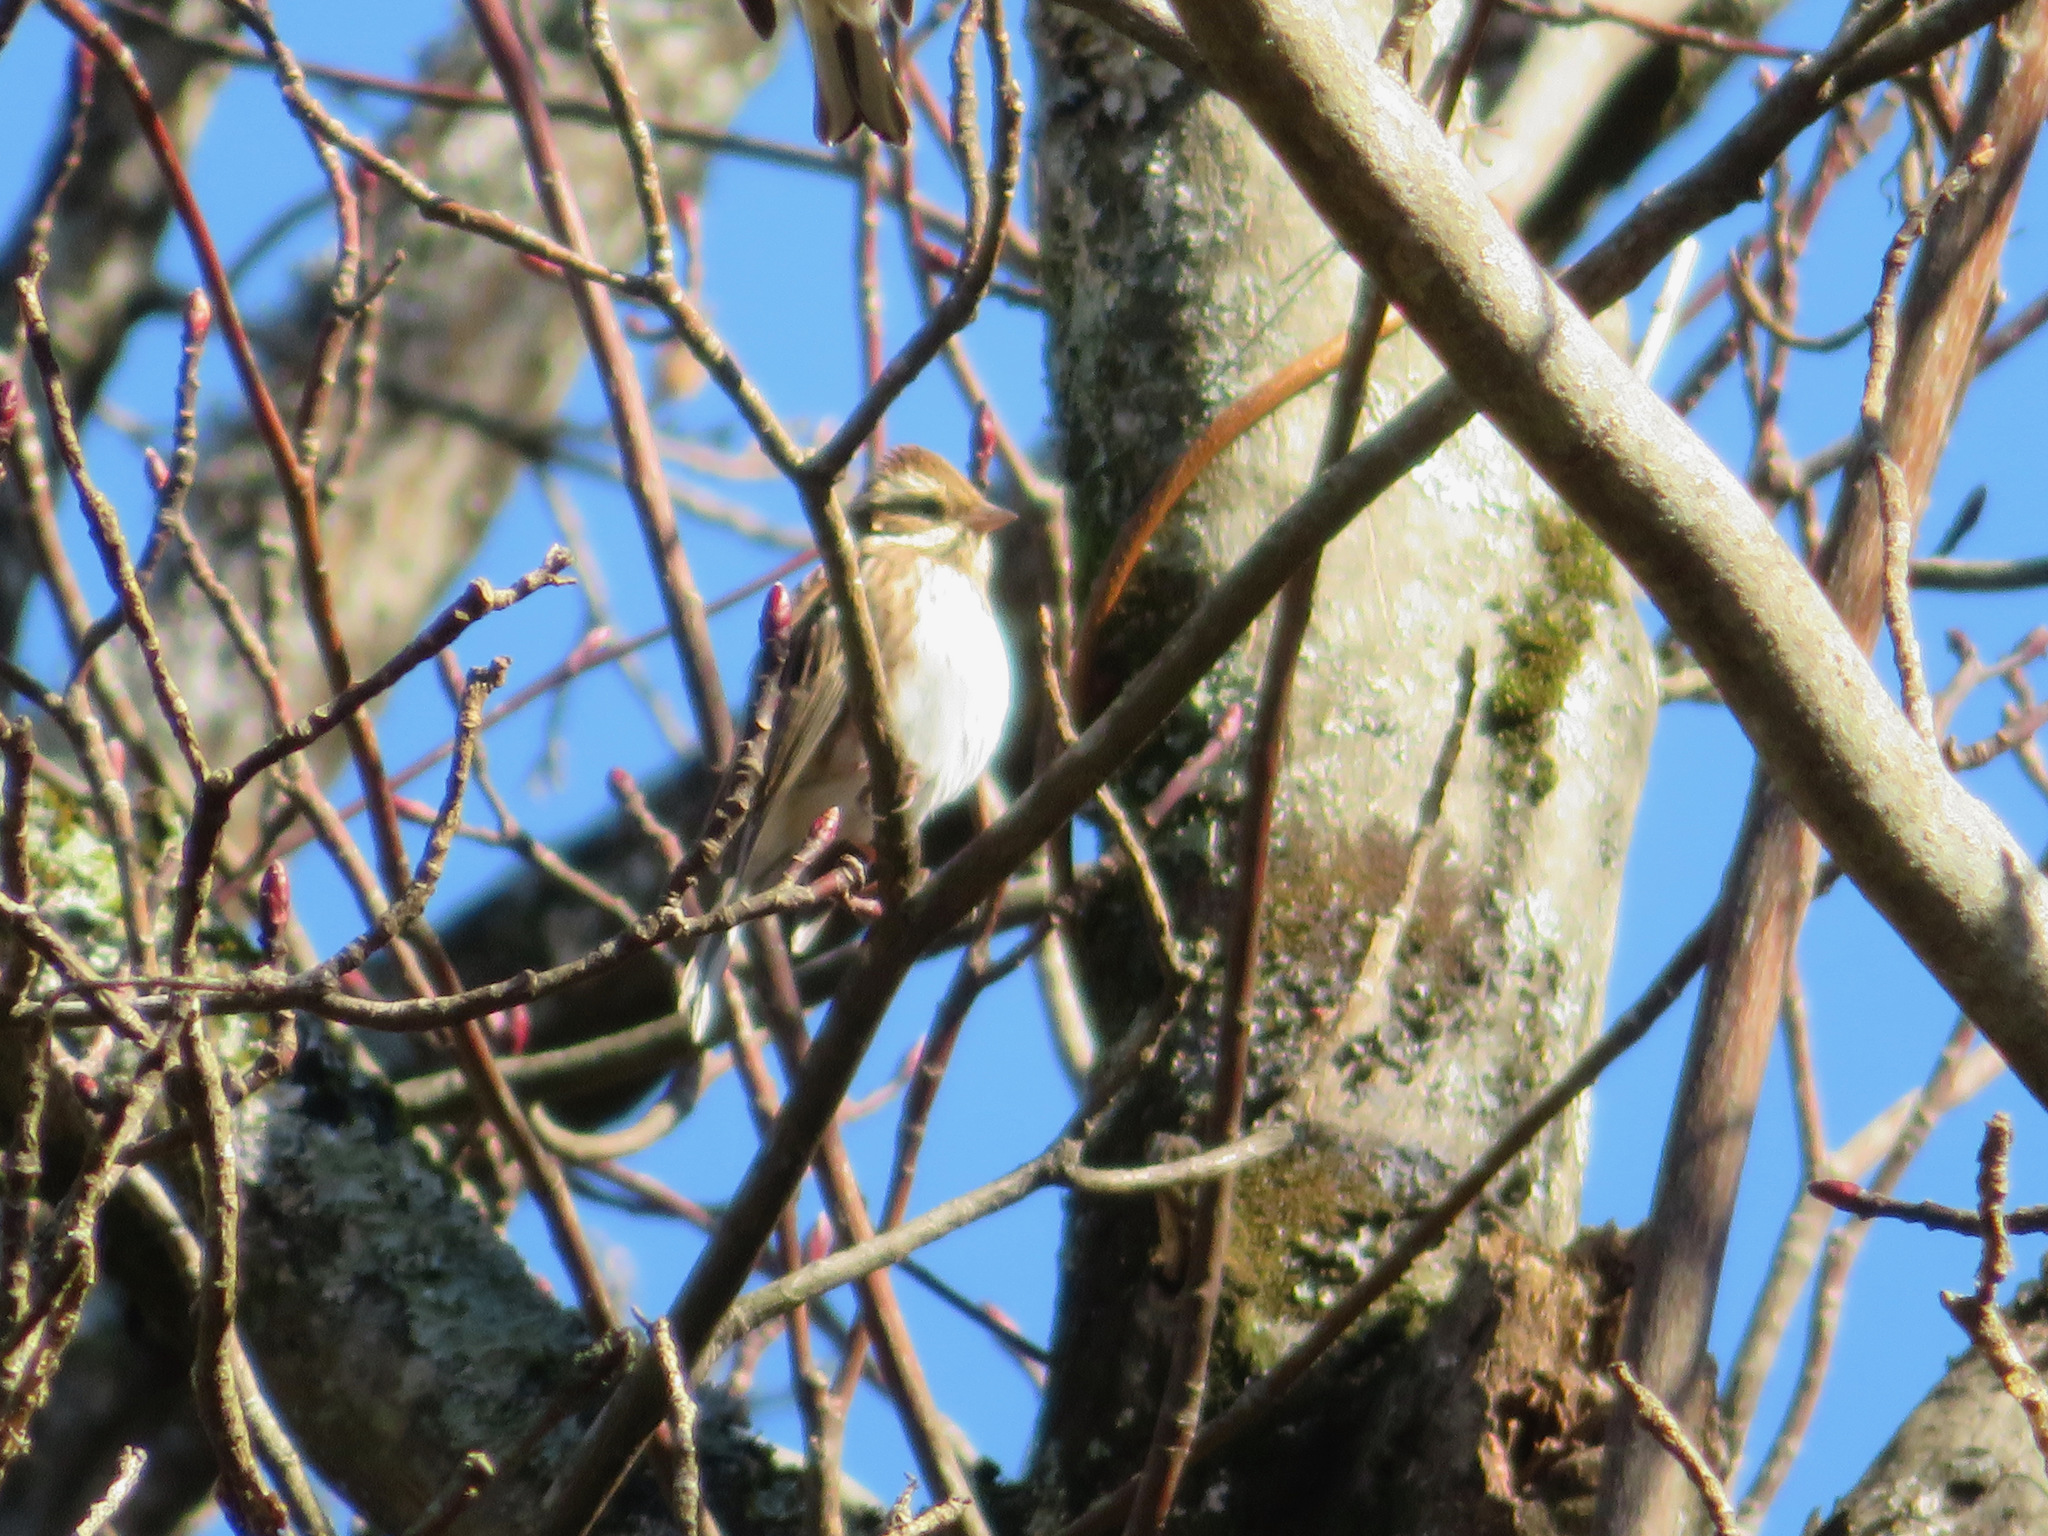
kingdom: Animalia
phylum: Chordata
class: Aves
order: Passeriformes
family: Emberizidae
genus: Emberiza
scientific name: Emberiza rustica
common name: Rustic bunting
